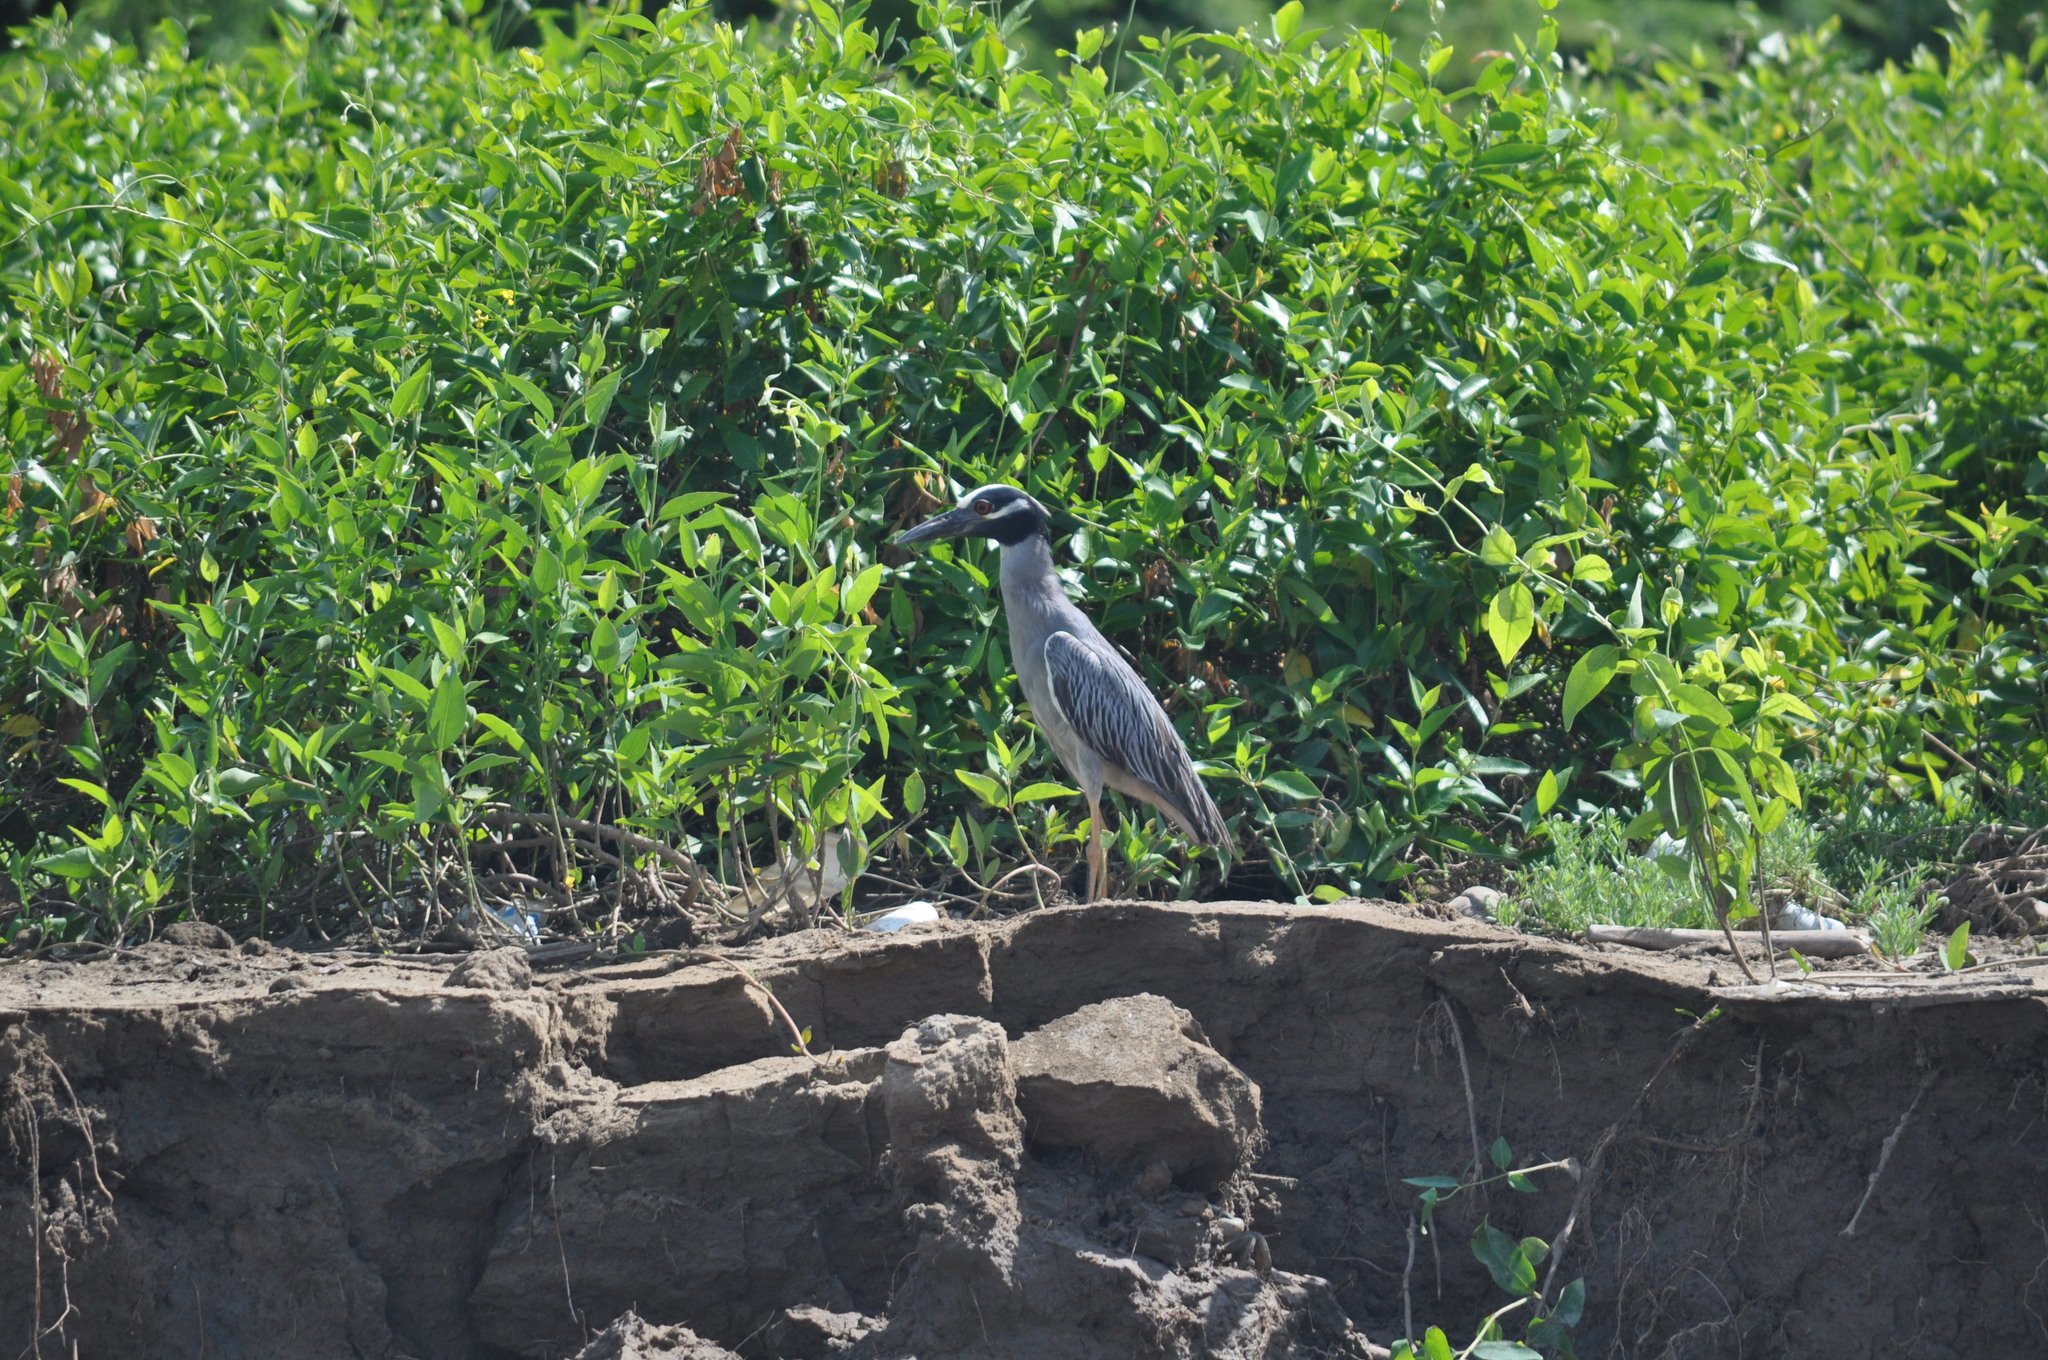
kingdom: Animalia
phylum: Chordata
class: Aves
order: Pelecaniformes
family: Ardeidae
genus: Nyctanassa
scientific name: Nyctanassa violacea
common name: Yellow-crowned night heron
